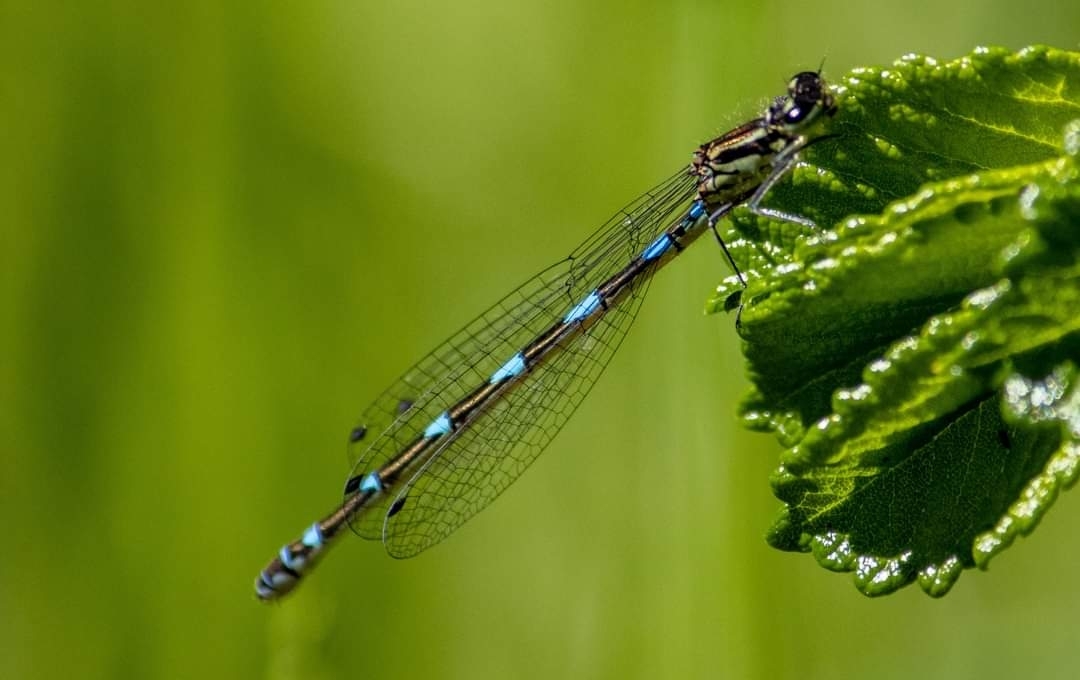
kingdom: Animalia
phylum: Arthropoda
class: Insecta
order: Odonata
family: Coenagrionidae
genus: Coenagrion
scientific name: Coenagrion pulchellum
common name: Variable bluet
